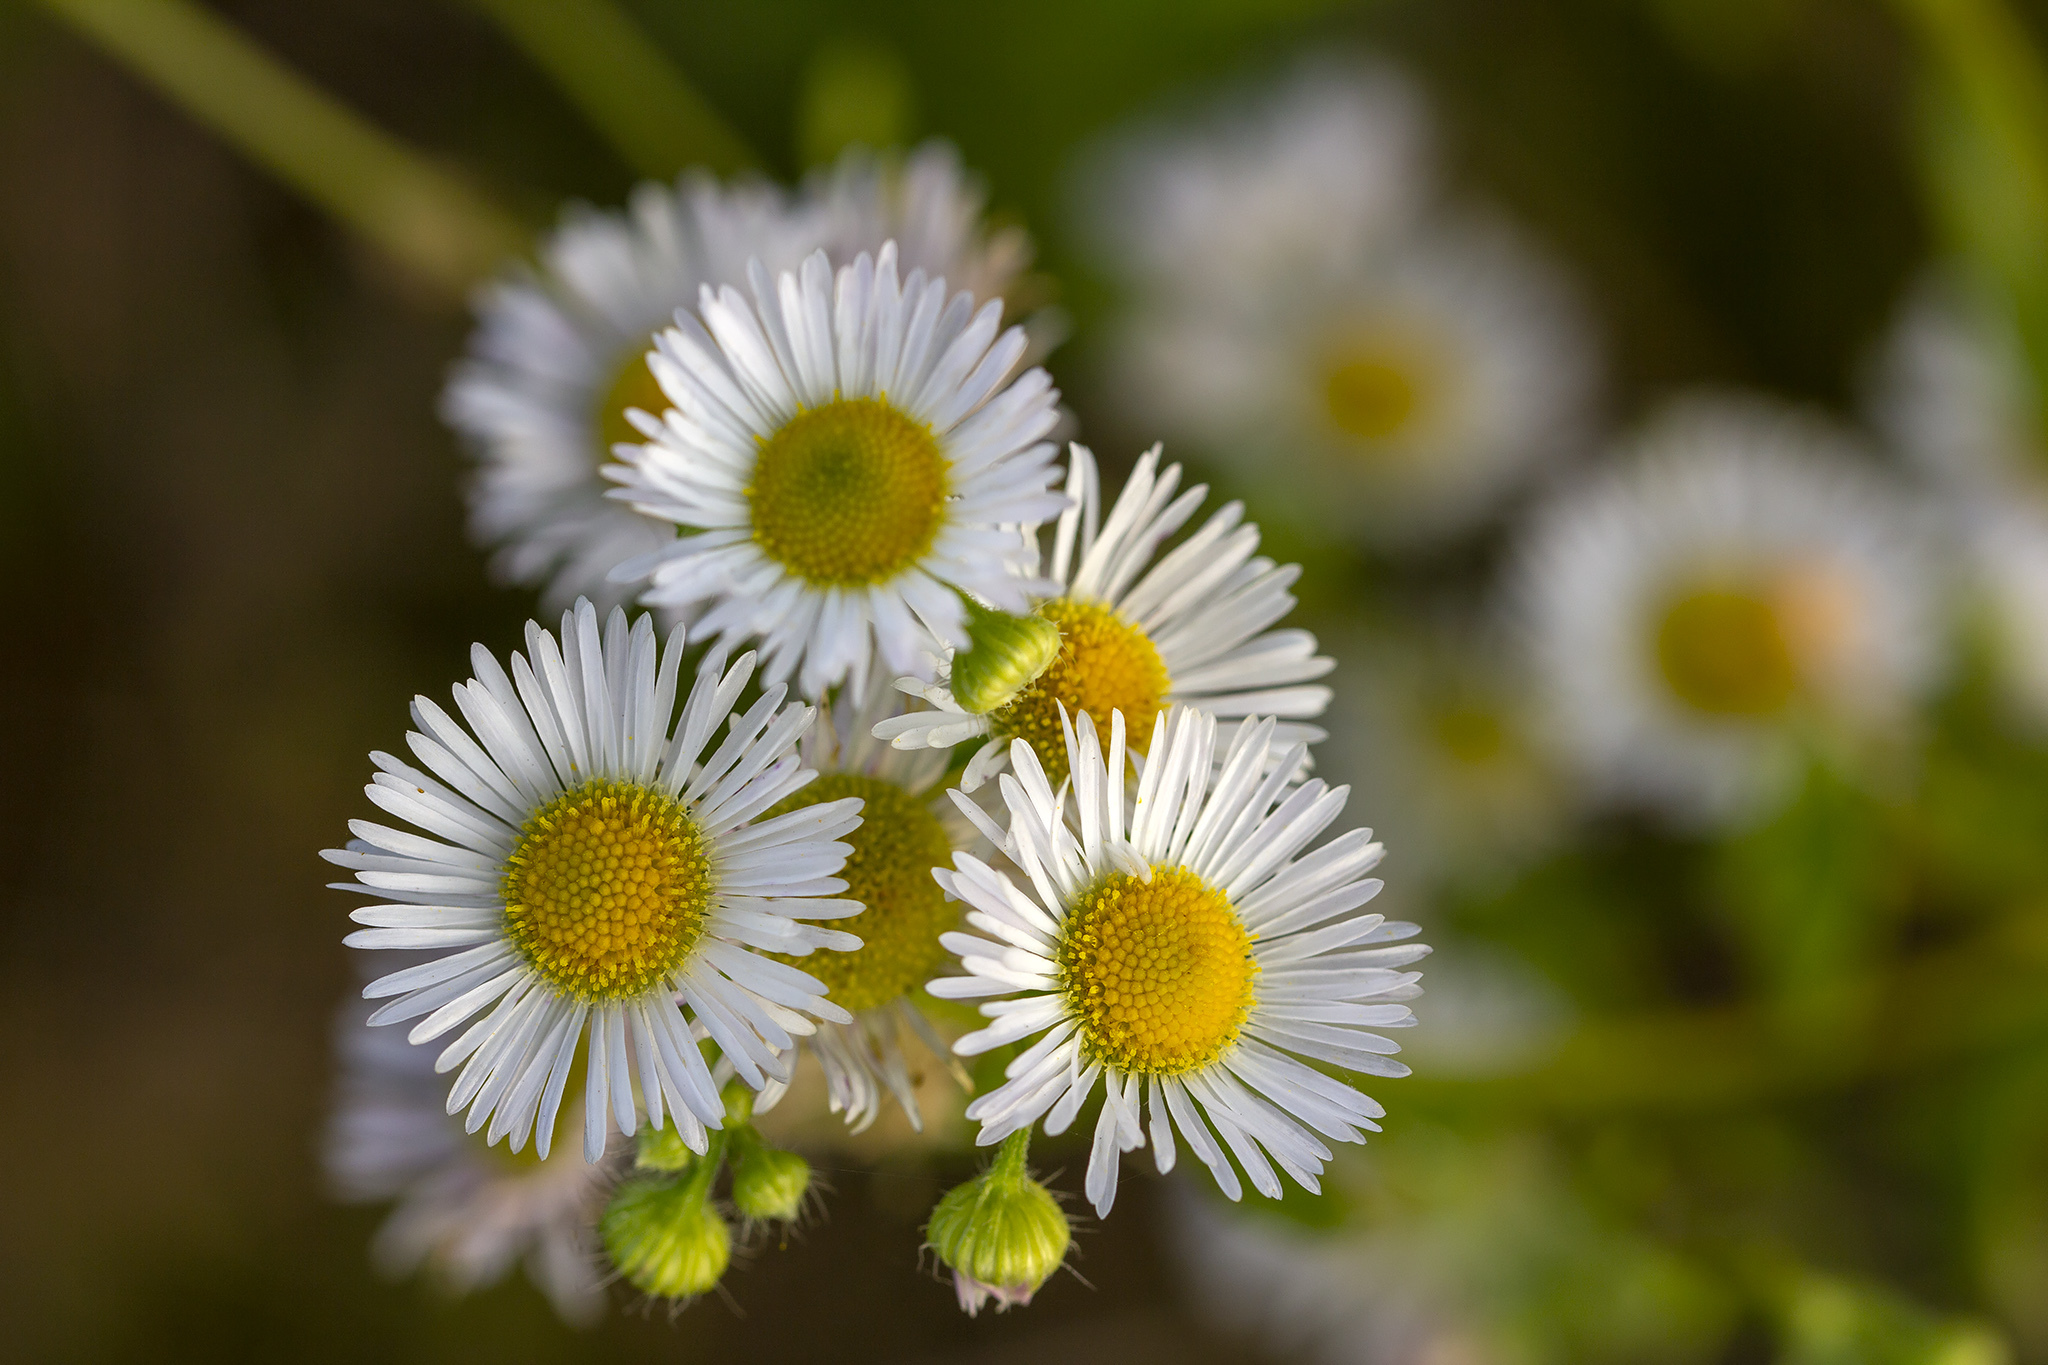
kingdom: Plantae
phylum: Tracheophyta
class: Magnoliopsida
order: Asterales
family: Asteraceae
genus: Erigeron
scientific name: Erigeron annuus
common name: Tall fleabane
